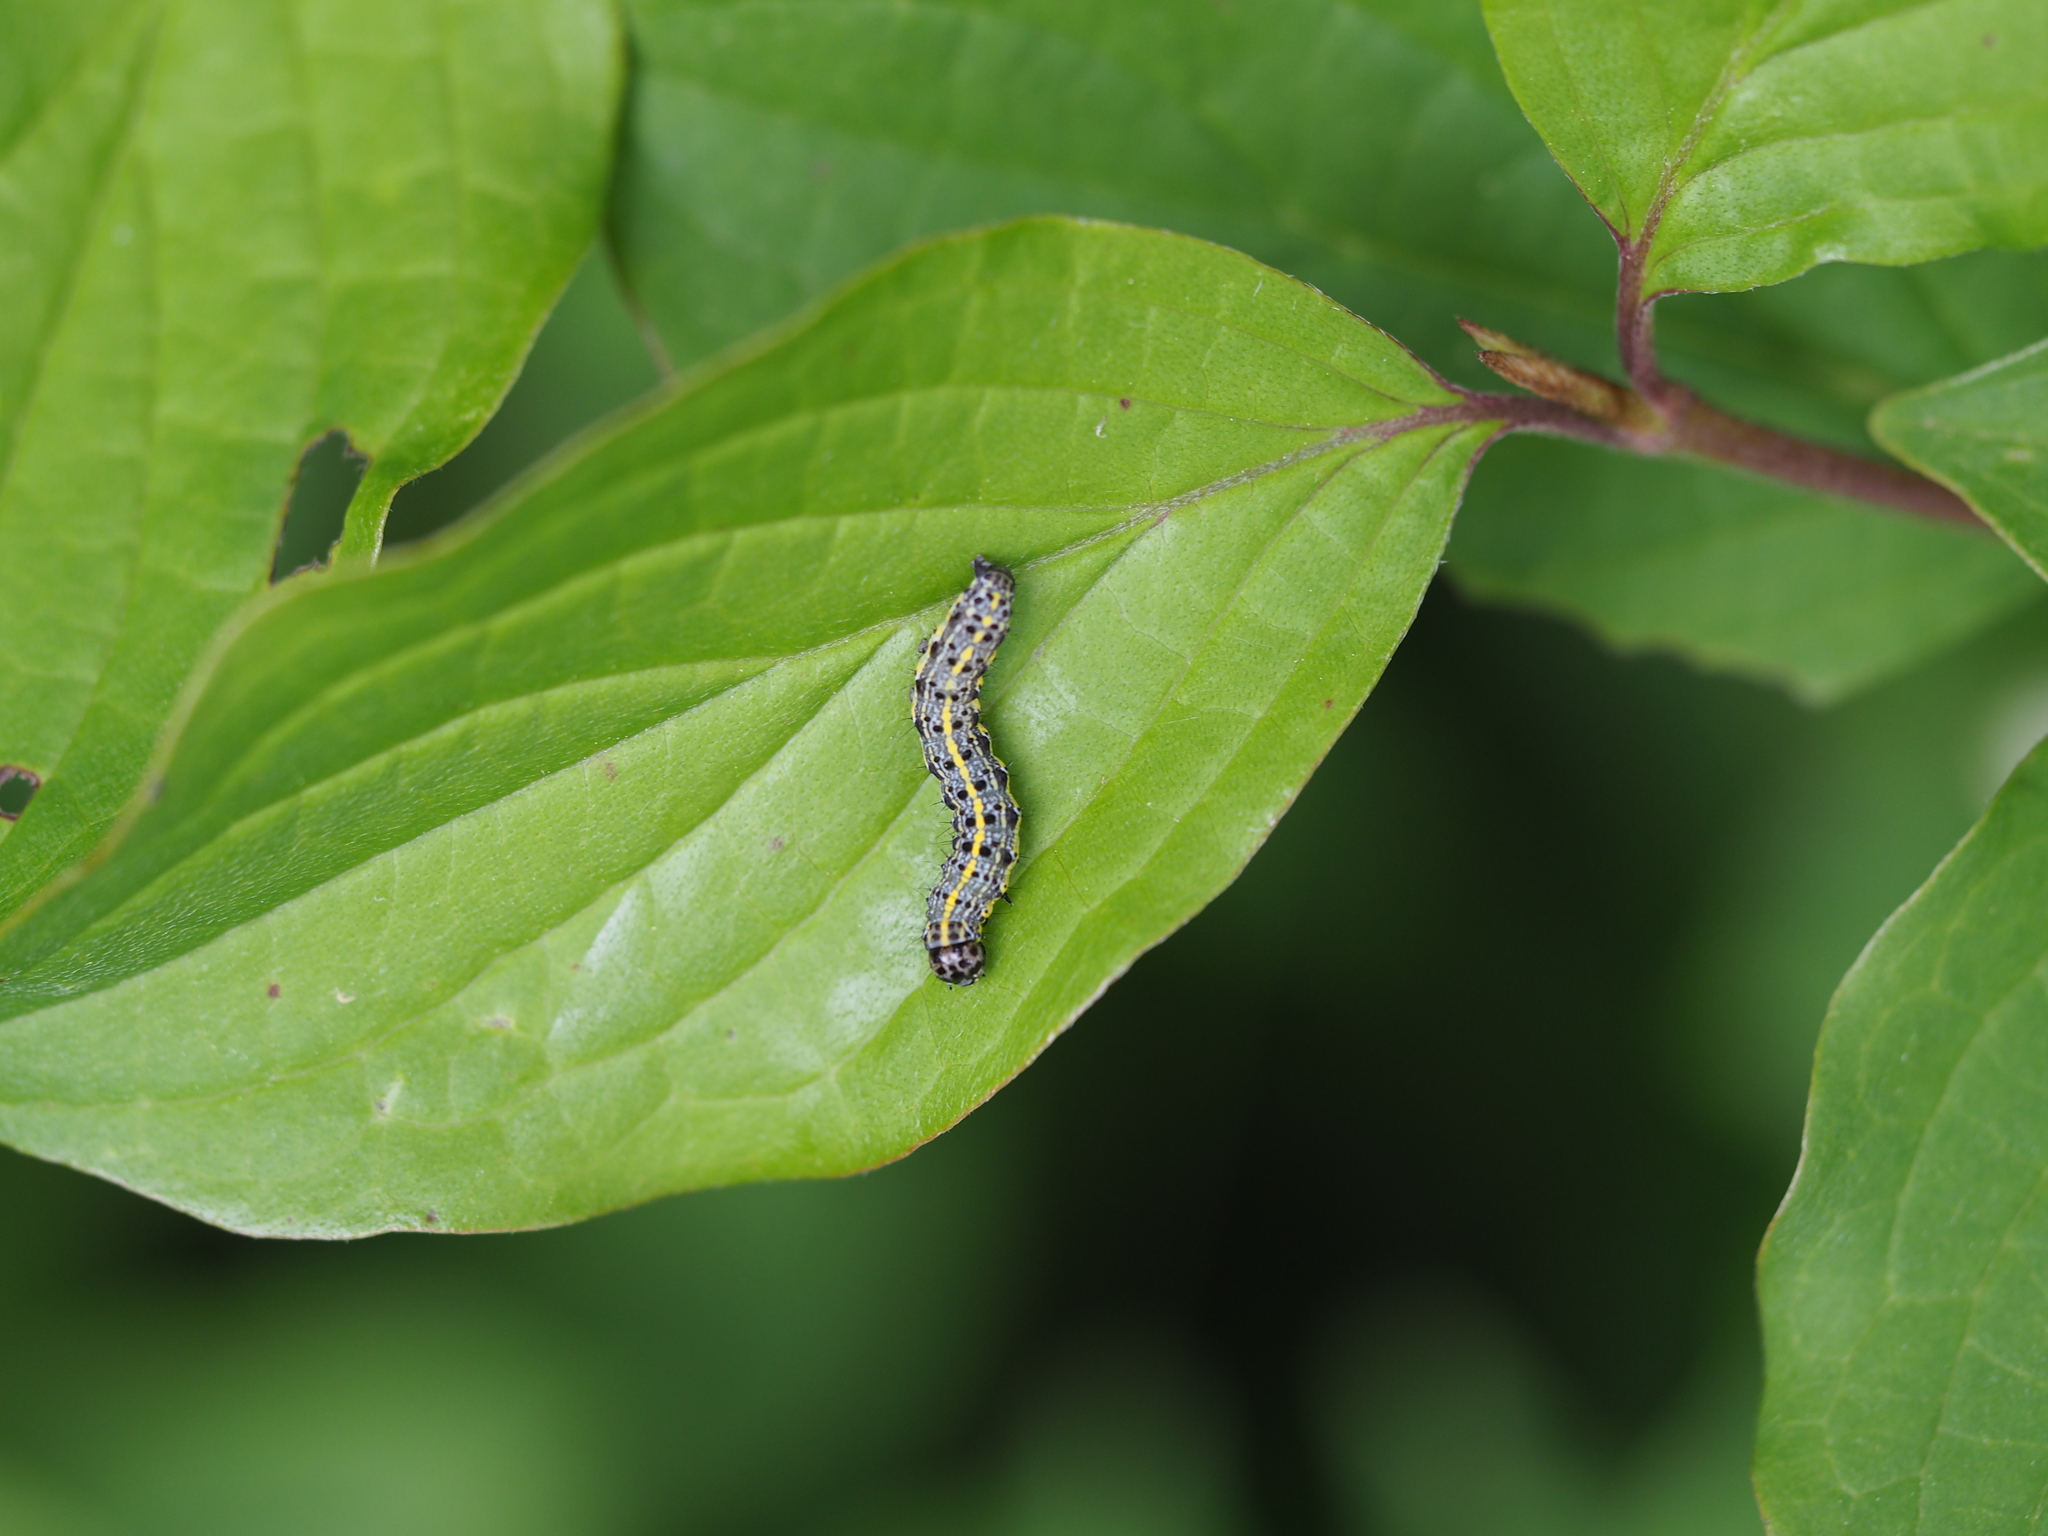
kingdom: Animalia
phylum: Arthropoda
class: Insecta
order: Lepidoptera
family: Noctuidae
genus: Orthosia
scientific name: Orthosia miniosa
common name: Blossom underwing
